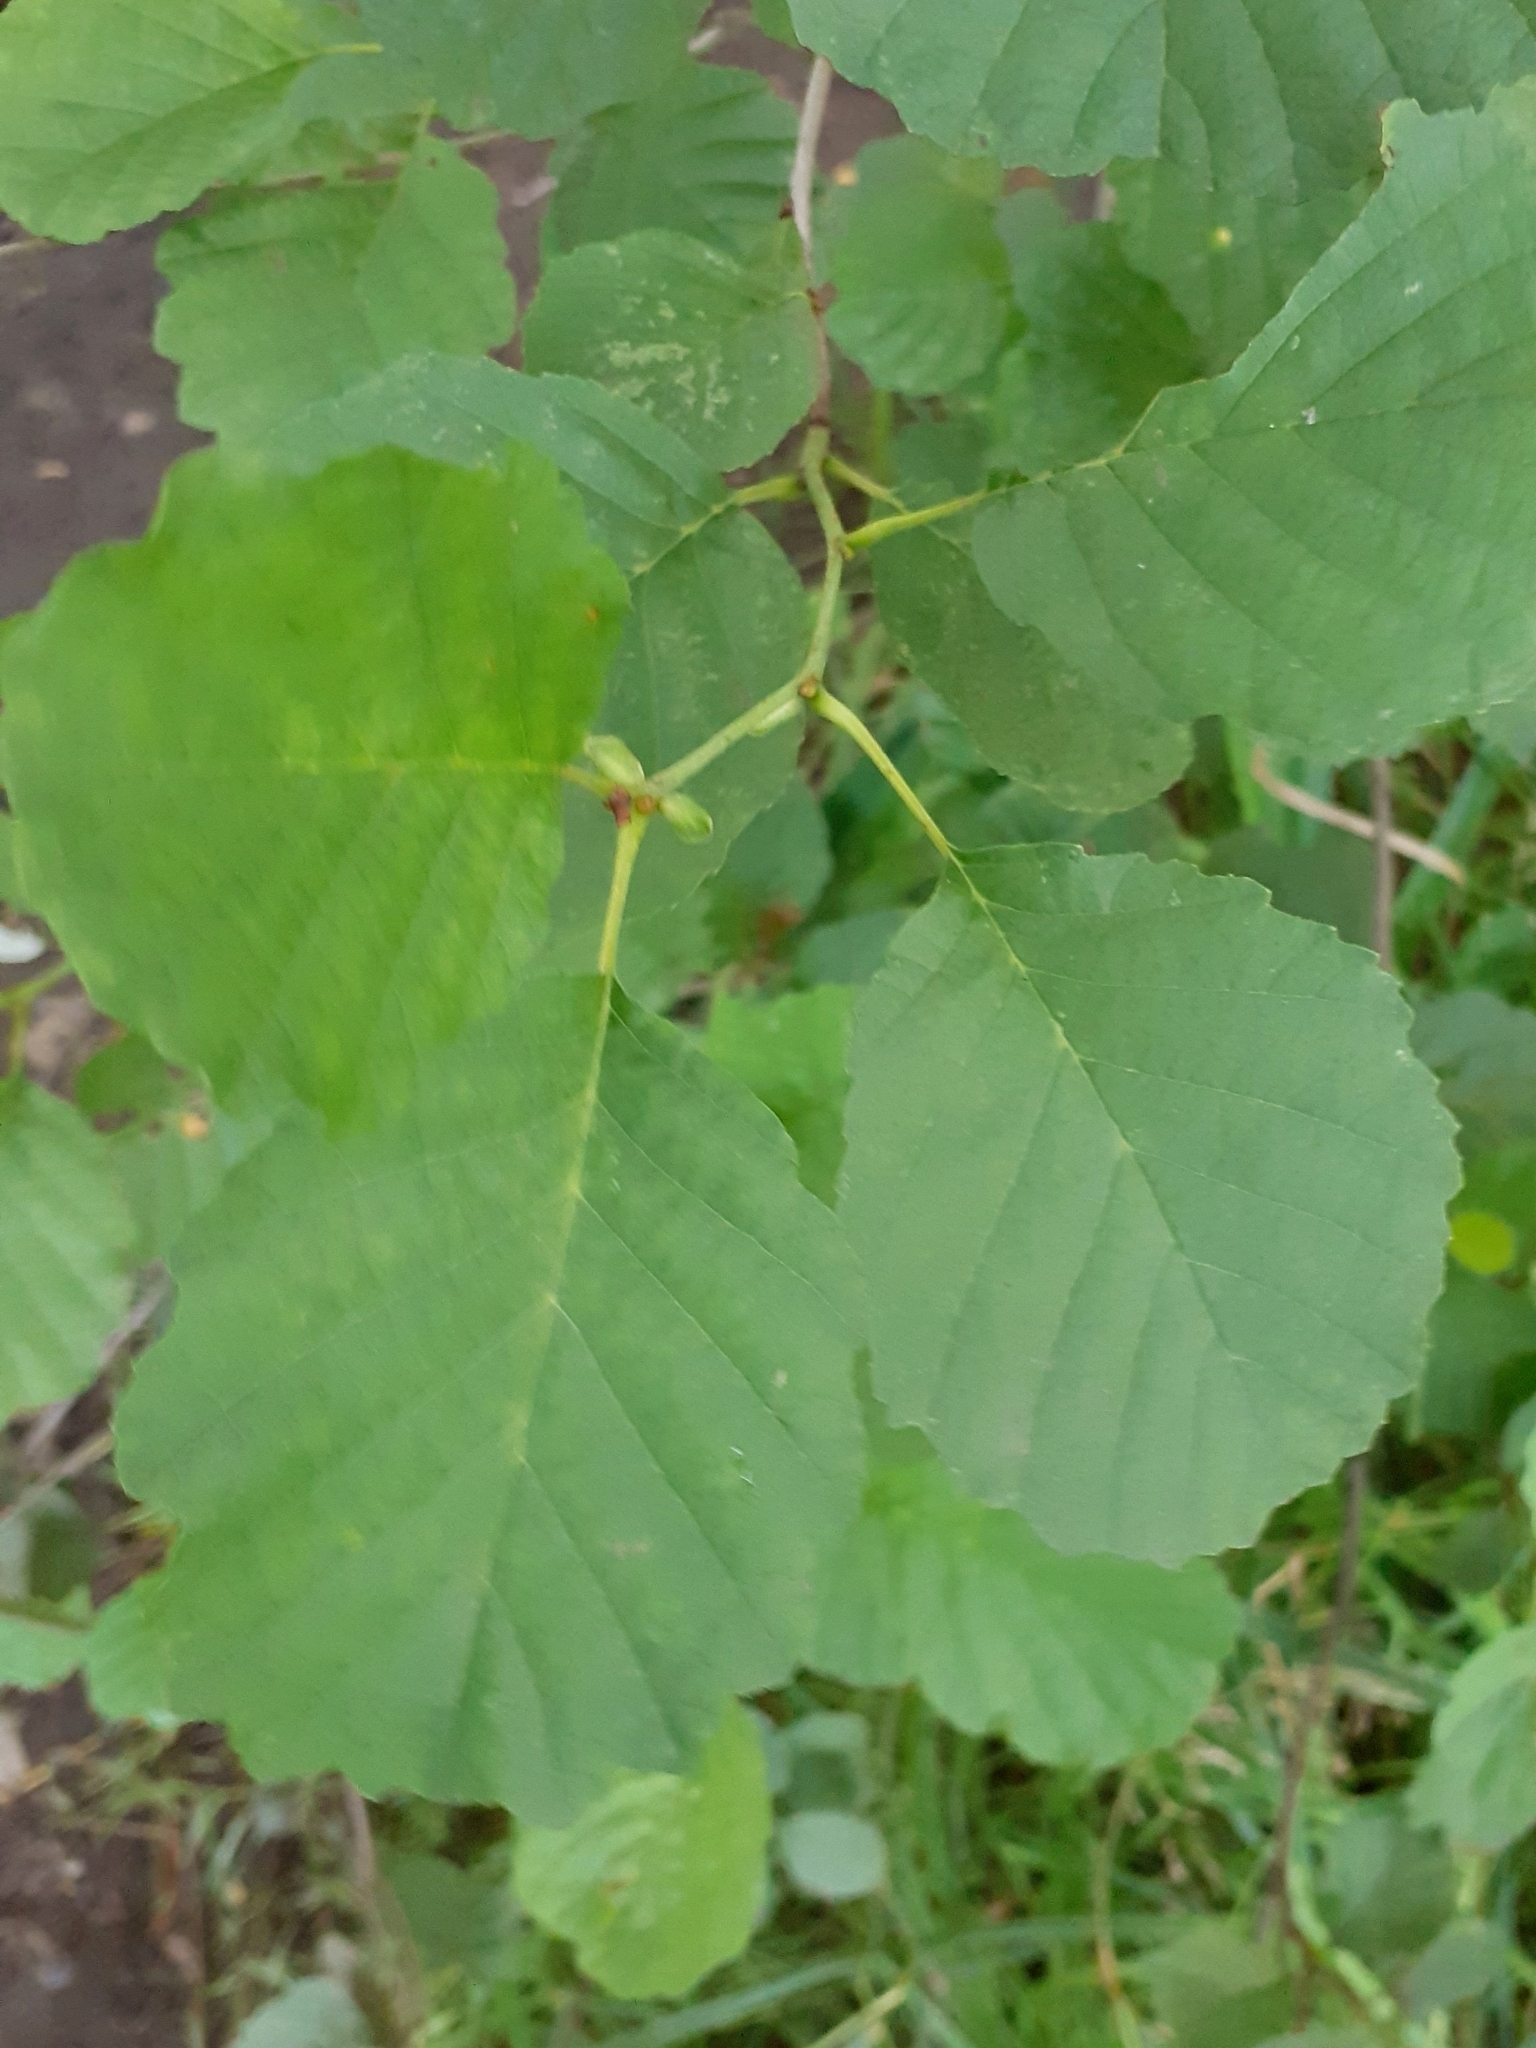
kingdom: Plantae
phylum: Tracheophyta
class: Magnoliopsida
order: Fagales
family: Betulaceae
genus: Alnus
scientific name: Alnus glutinosa
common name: Black alder
